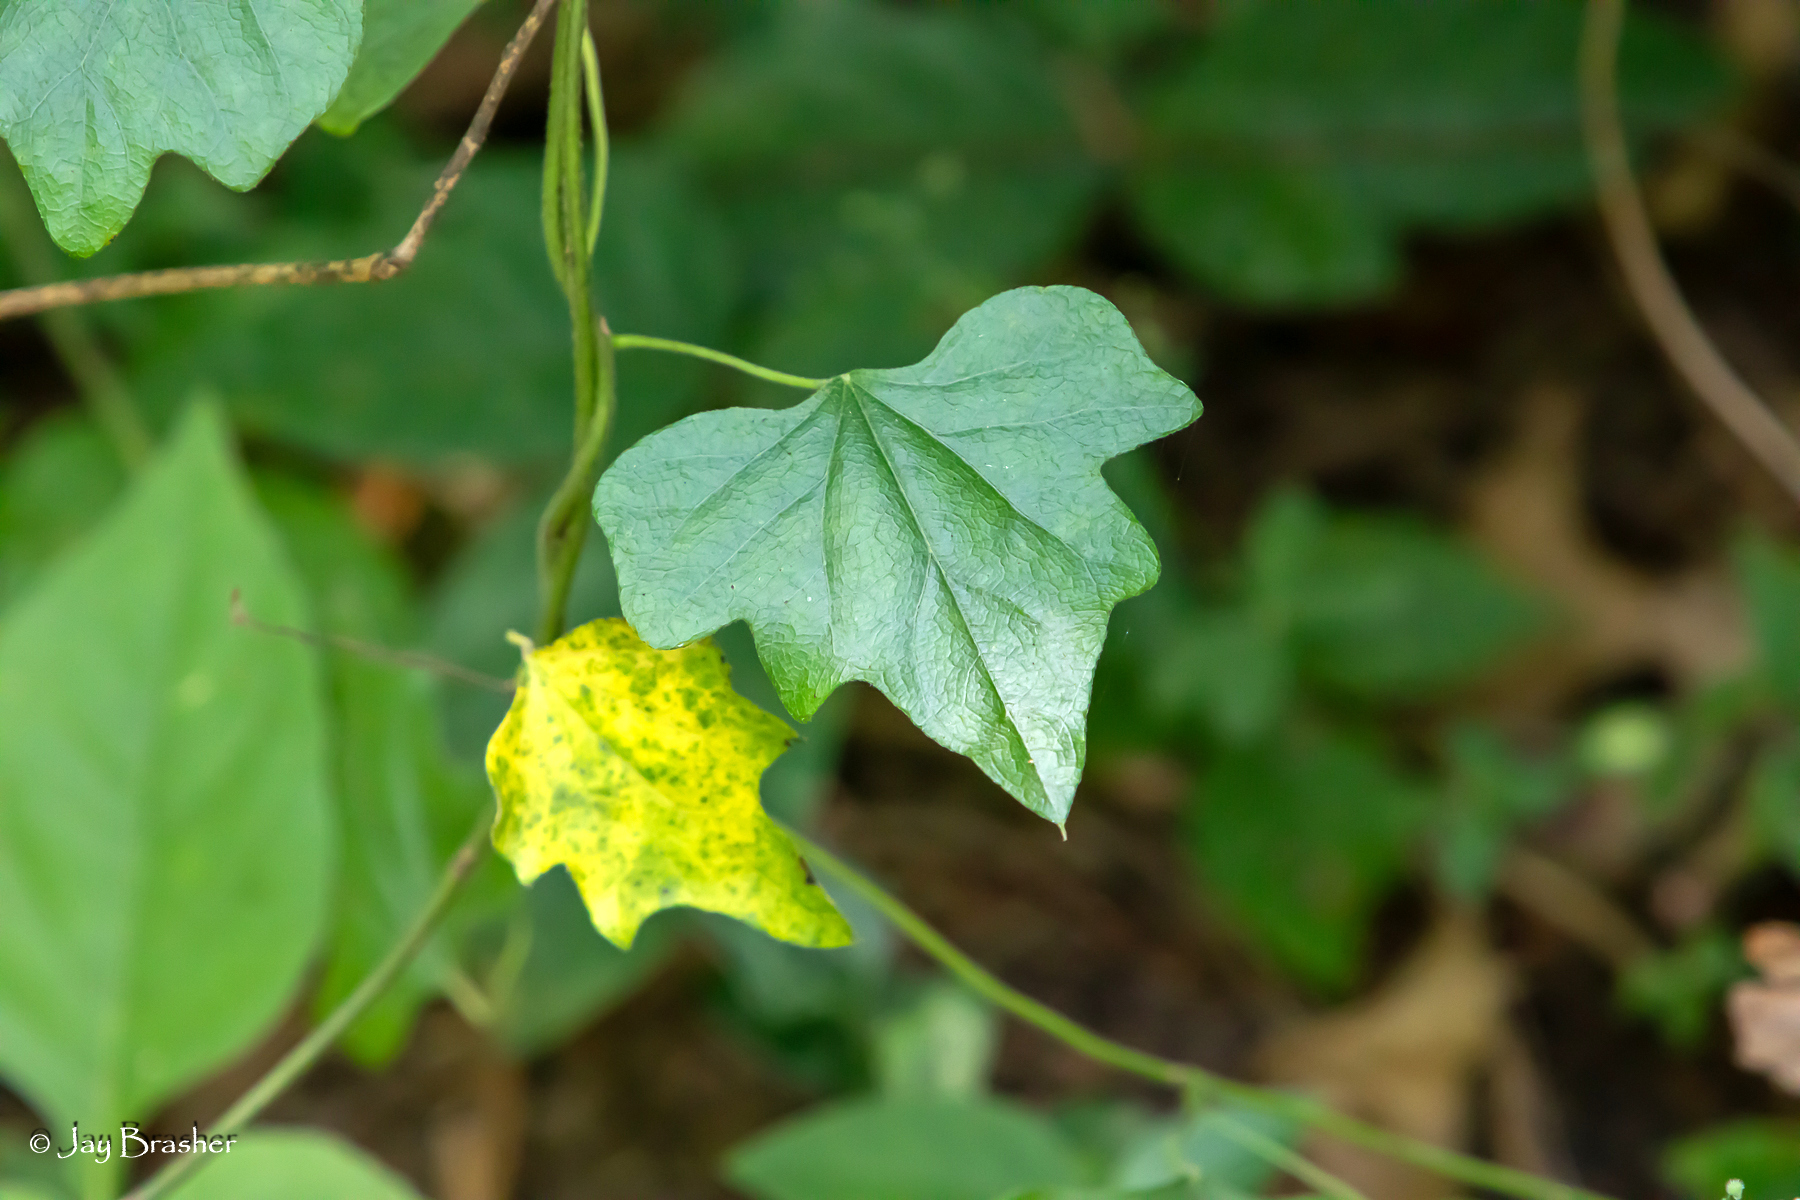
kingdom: Plantae
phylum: Tracheophyta
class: Magnoliopsida
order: Ranunculales
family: Menispermaceae
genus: Cocculus
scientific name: Cocculus carolinus
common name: Carolina moonseed
